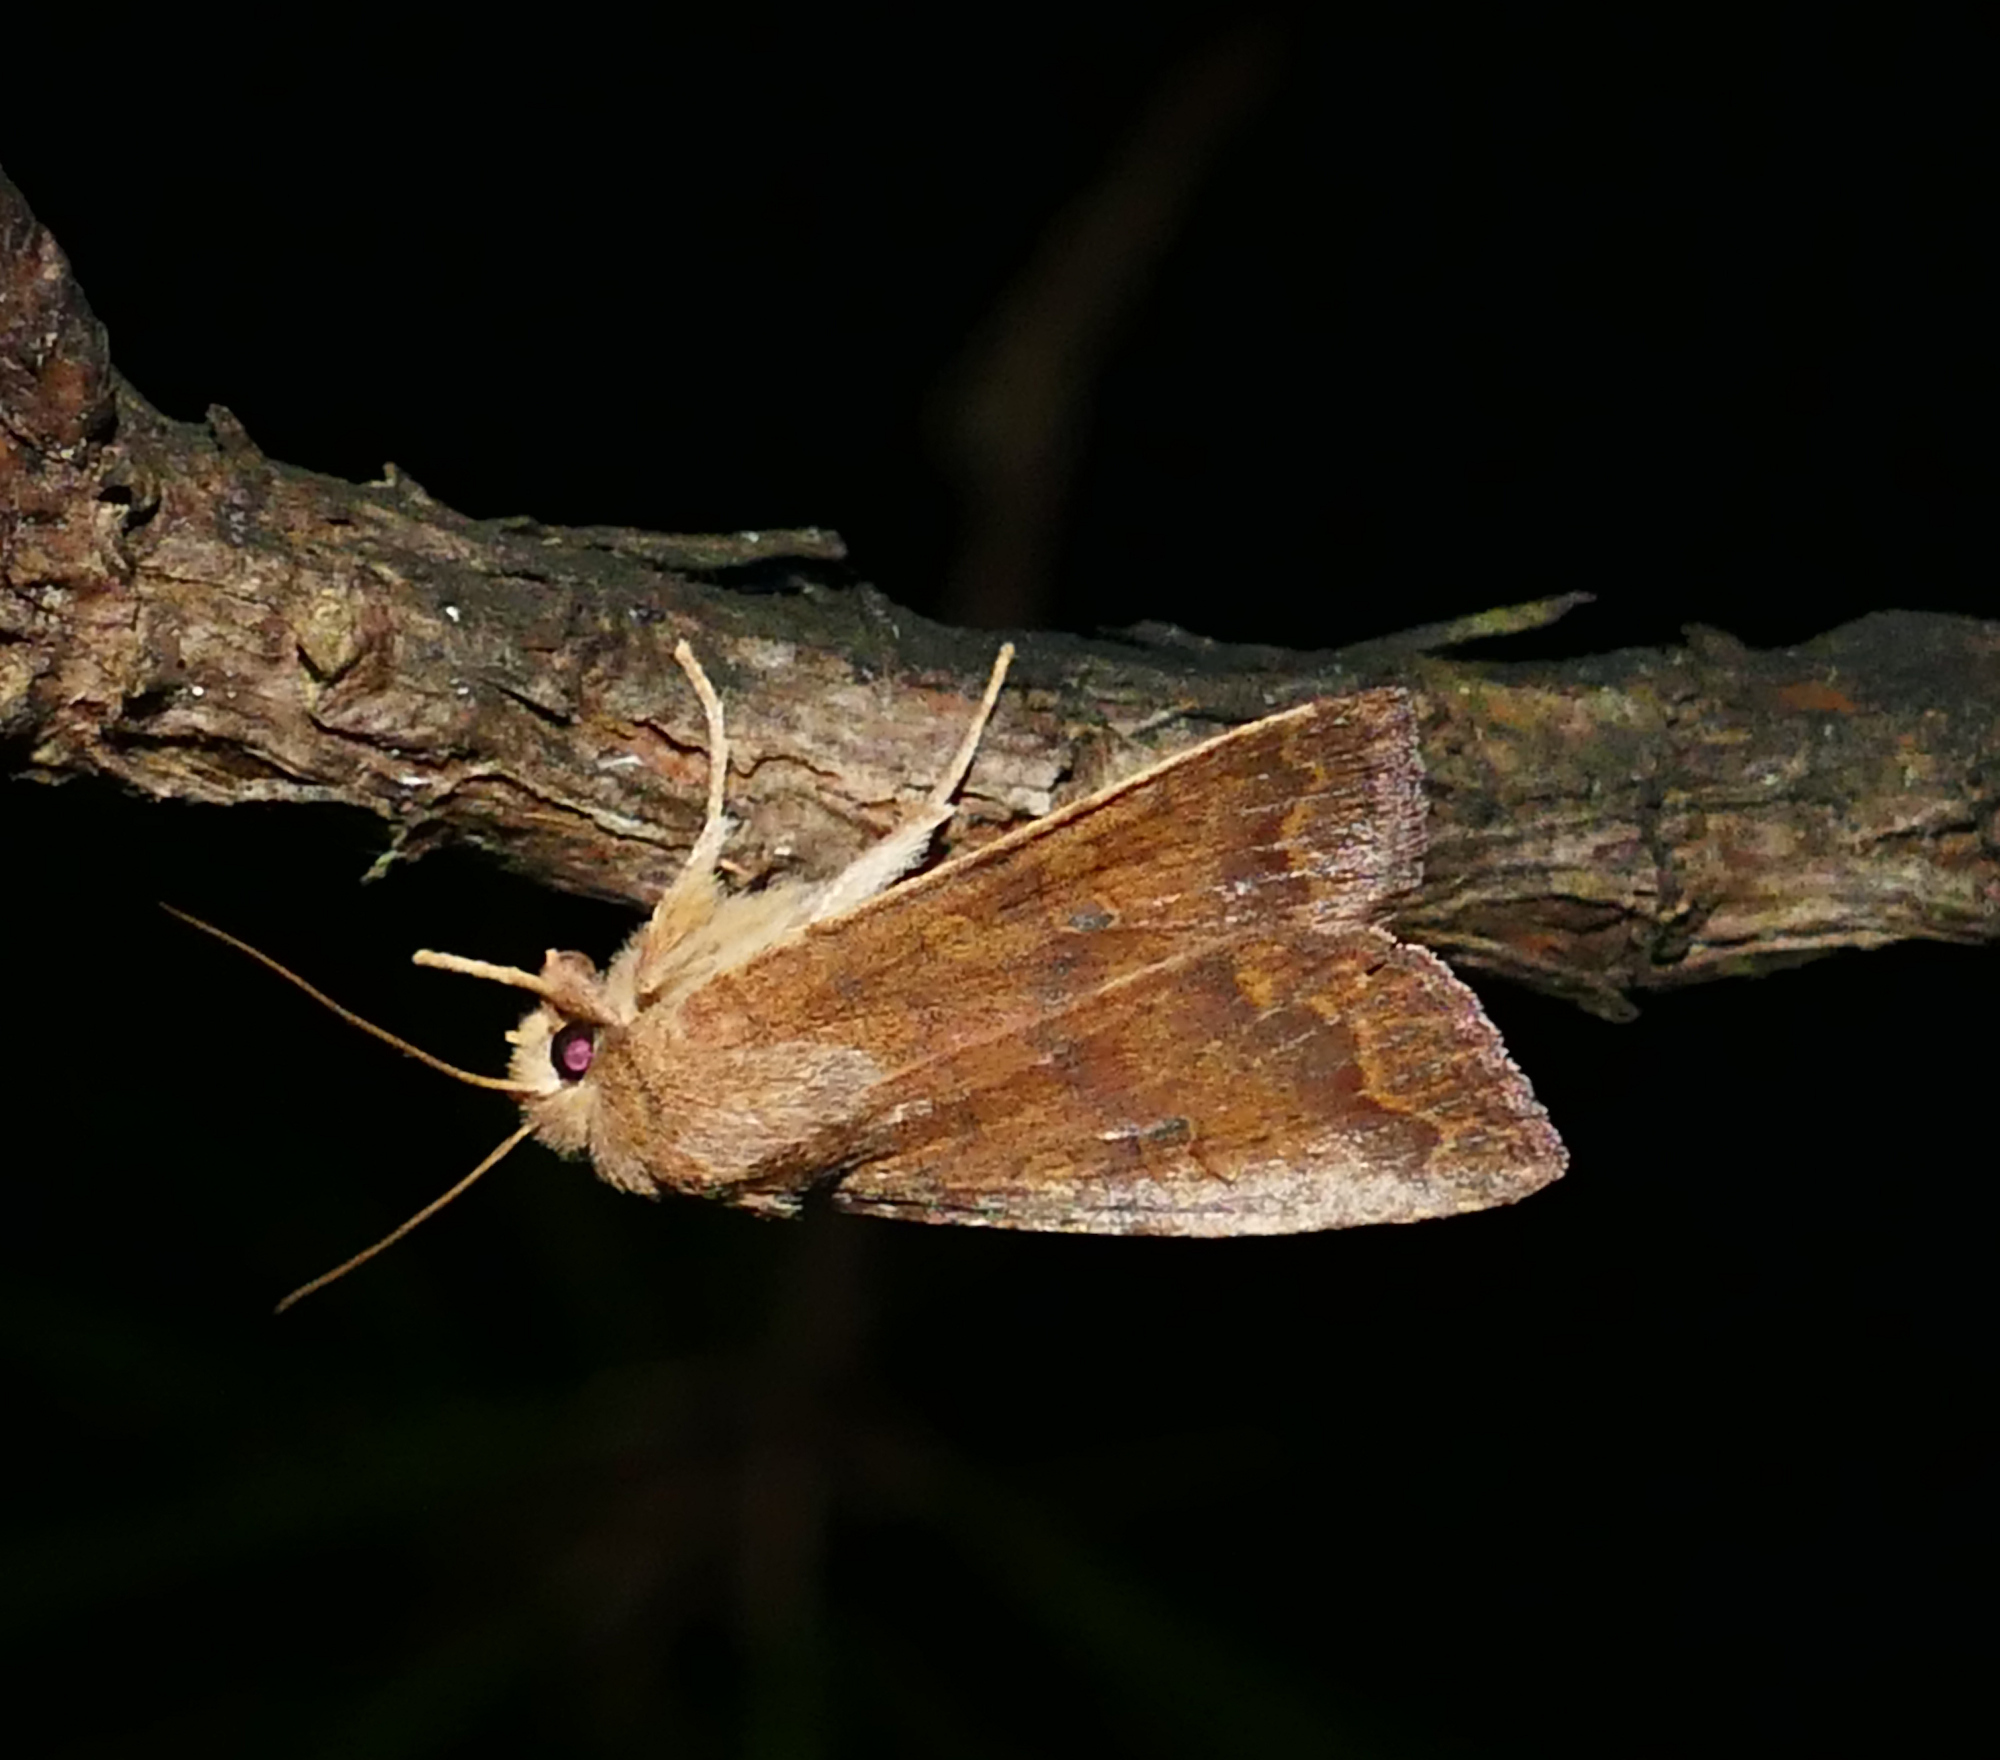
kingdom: Animalia
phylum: Arthropoda
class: Insecta
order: Lepidoptera
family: Noctuidae
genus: Agrochola
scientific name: Agrochola bicolorago
